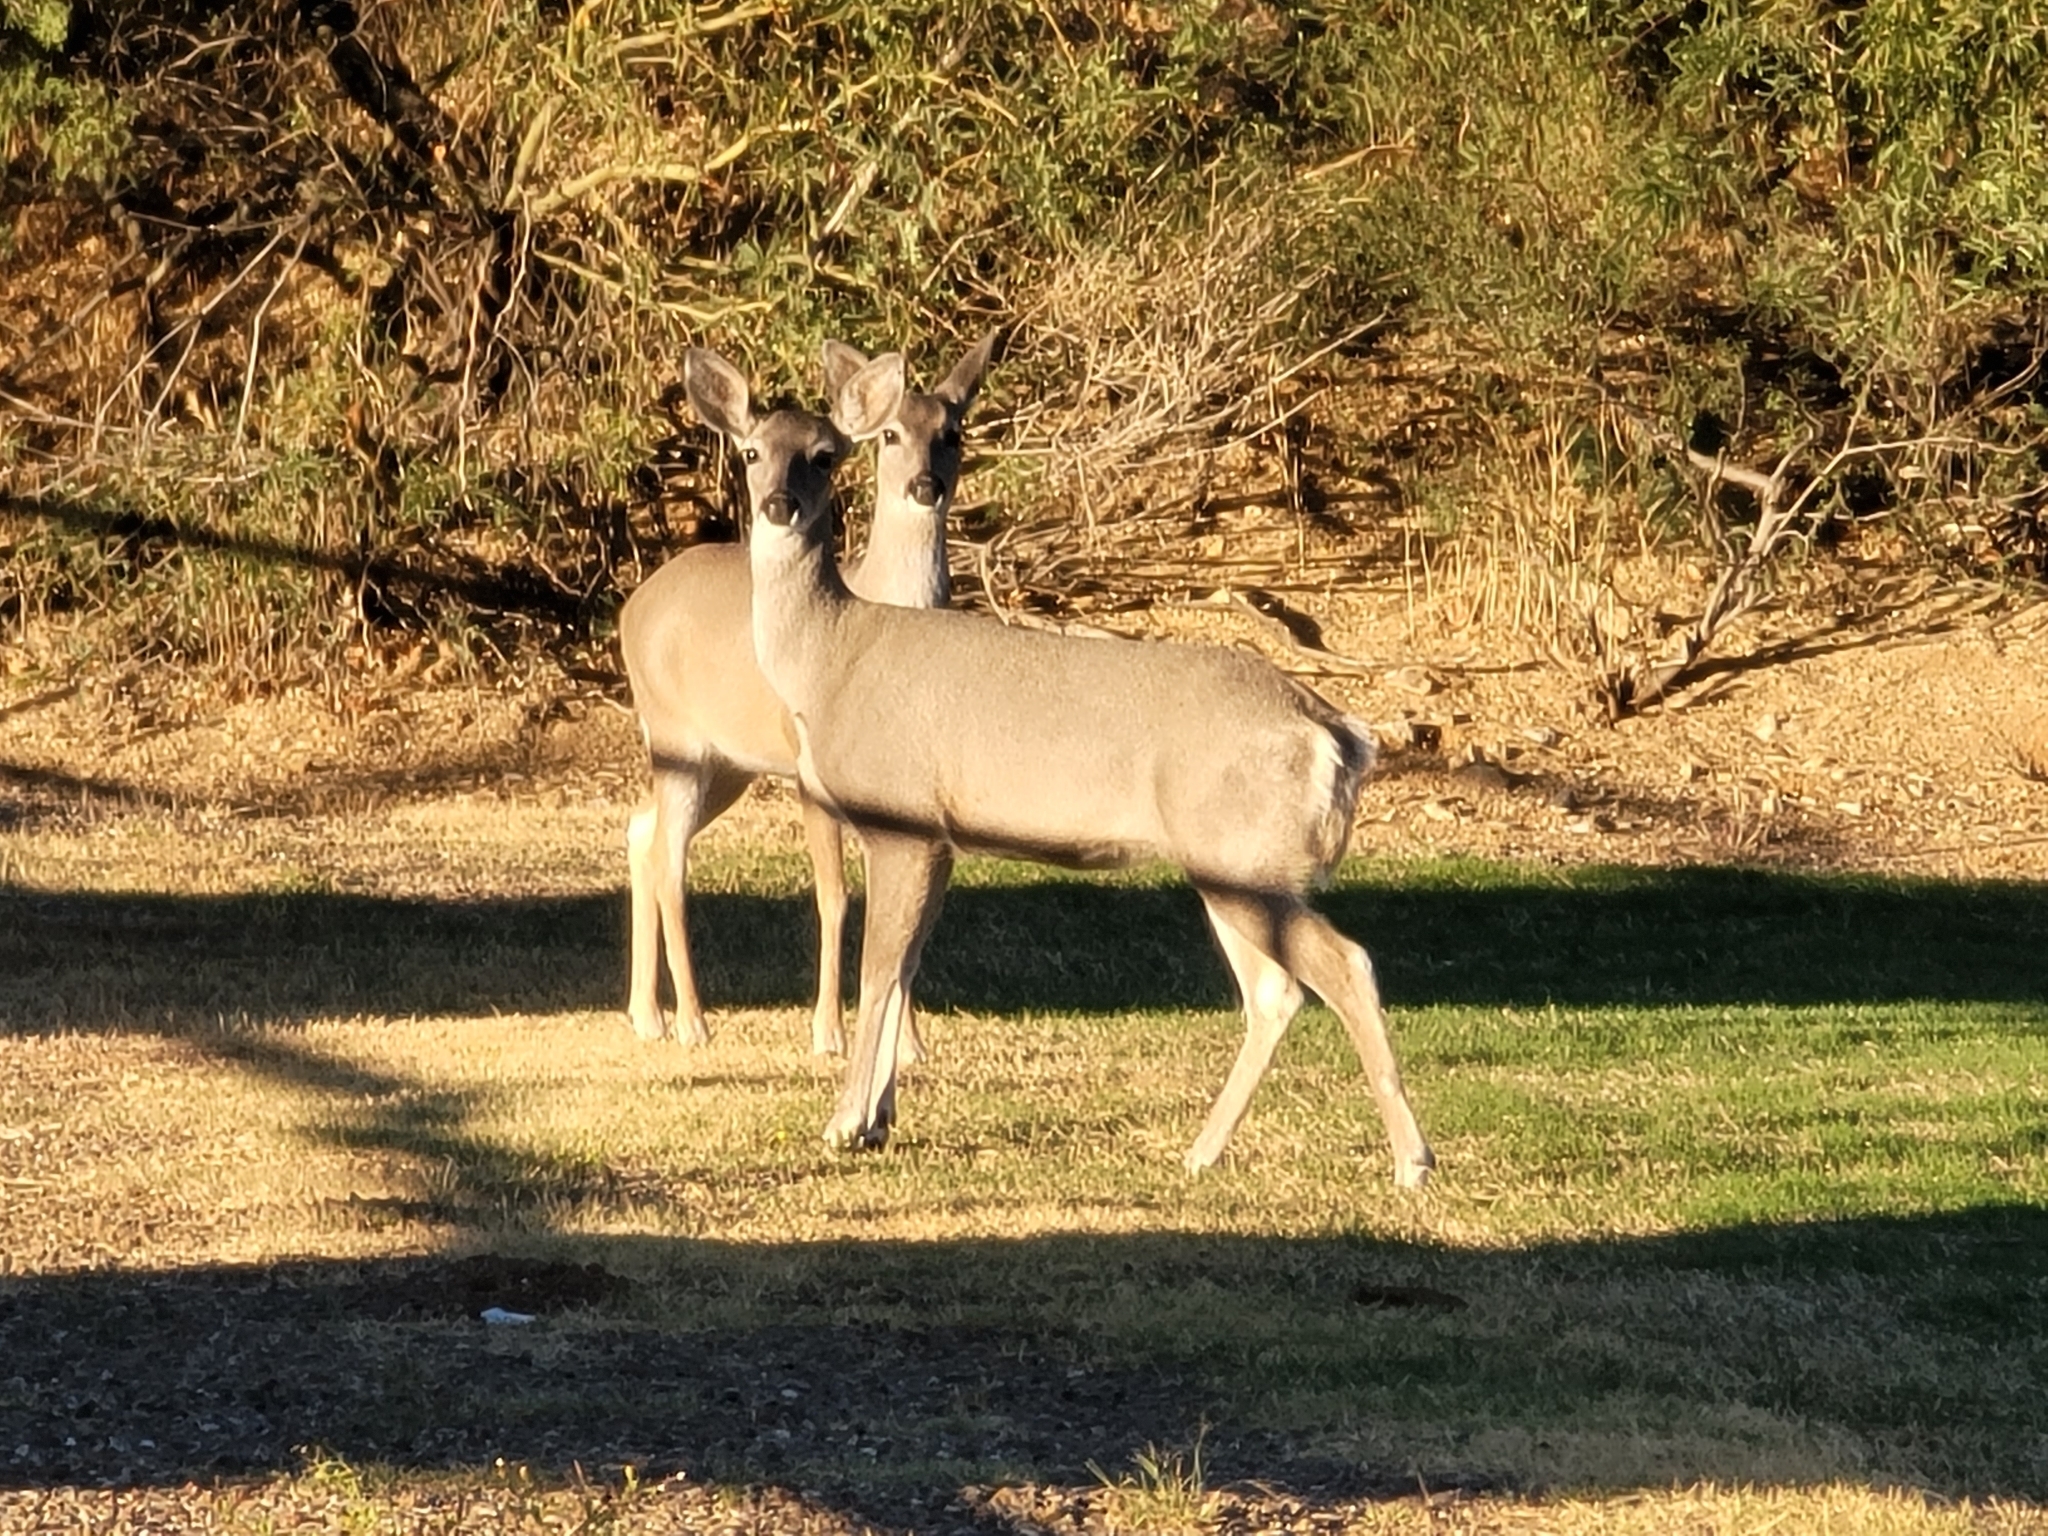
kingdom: Animalia
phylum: Chordata
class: Mammalia
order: Artiodactyla
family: Cervidae
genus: Odocoileus
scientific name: Odocoileus virginianus
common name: White-tailed deer
